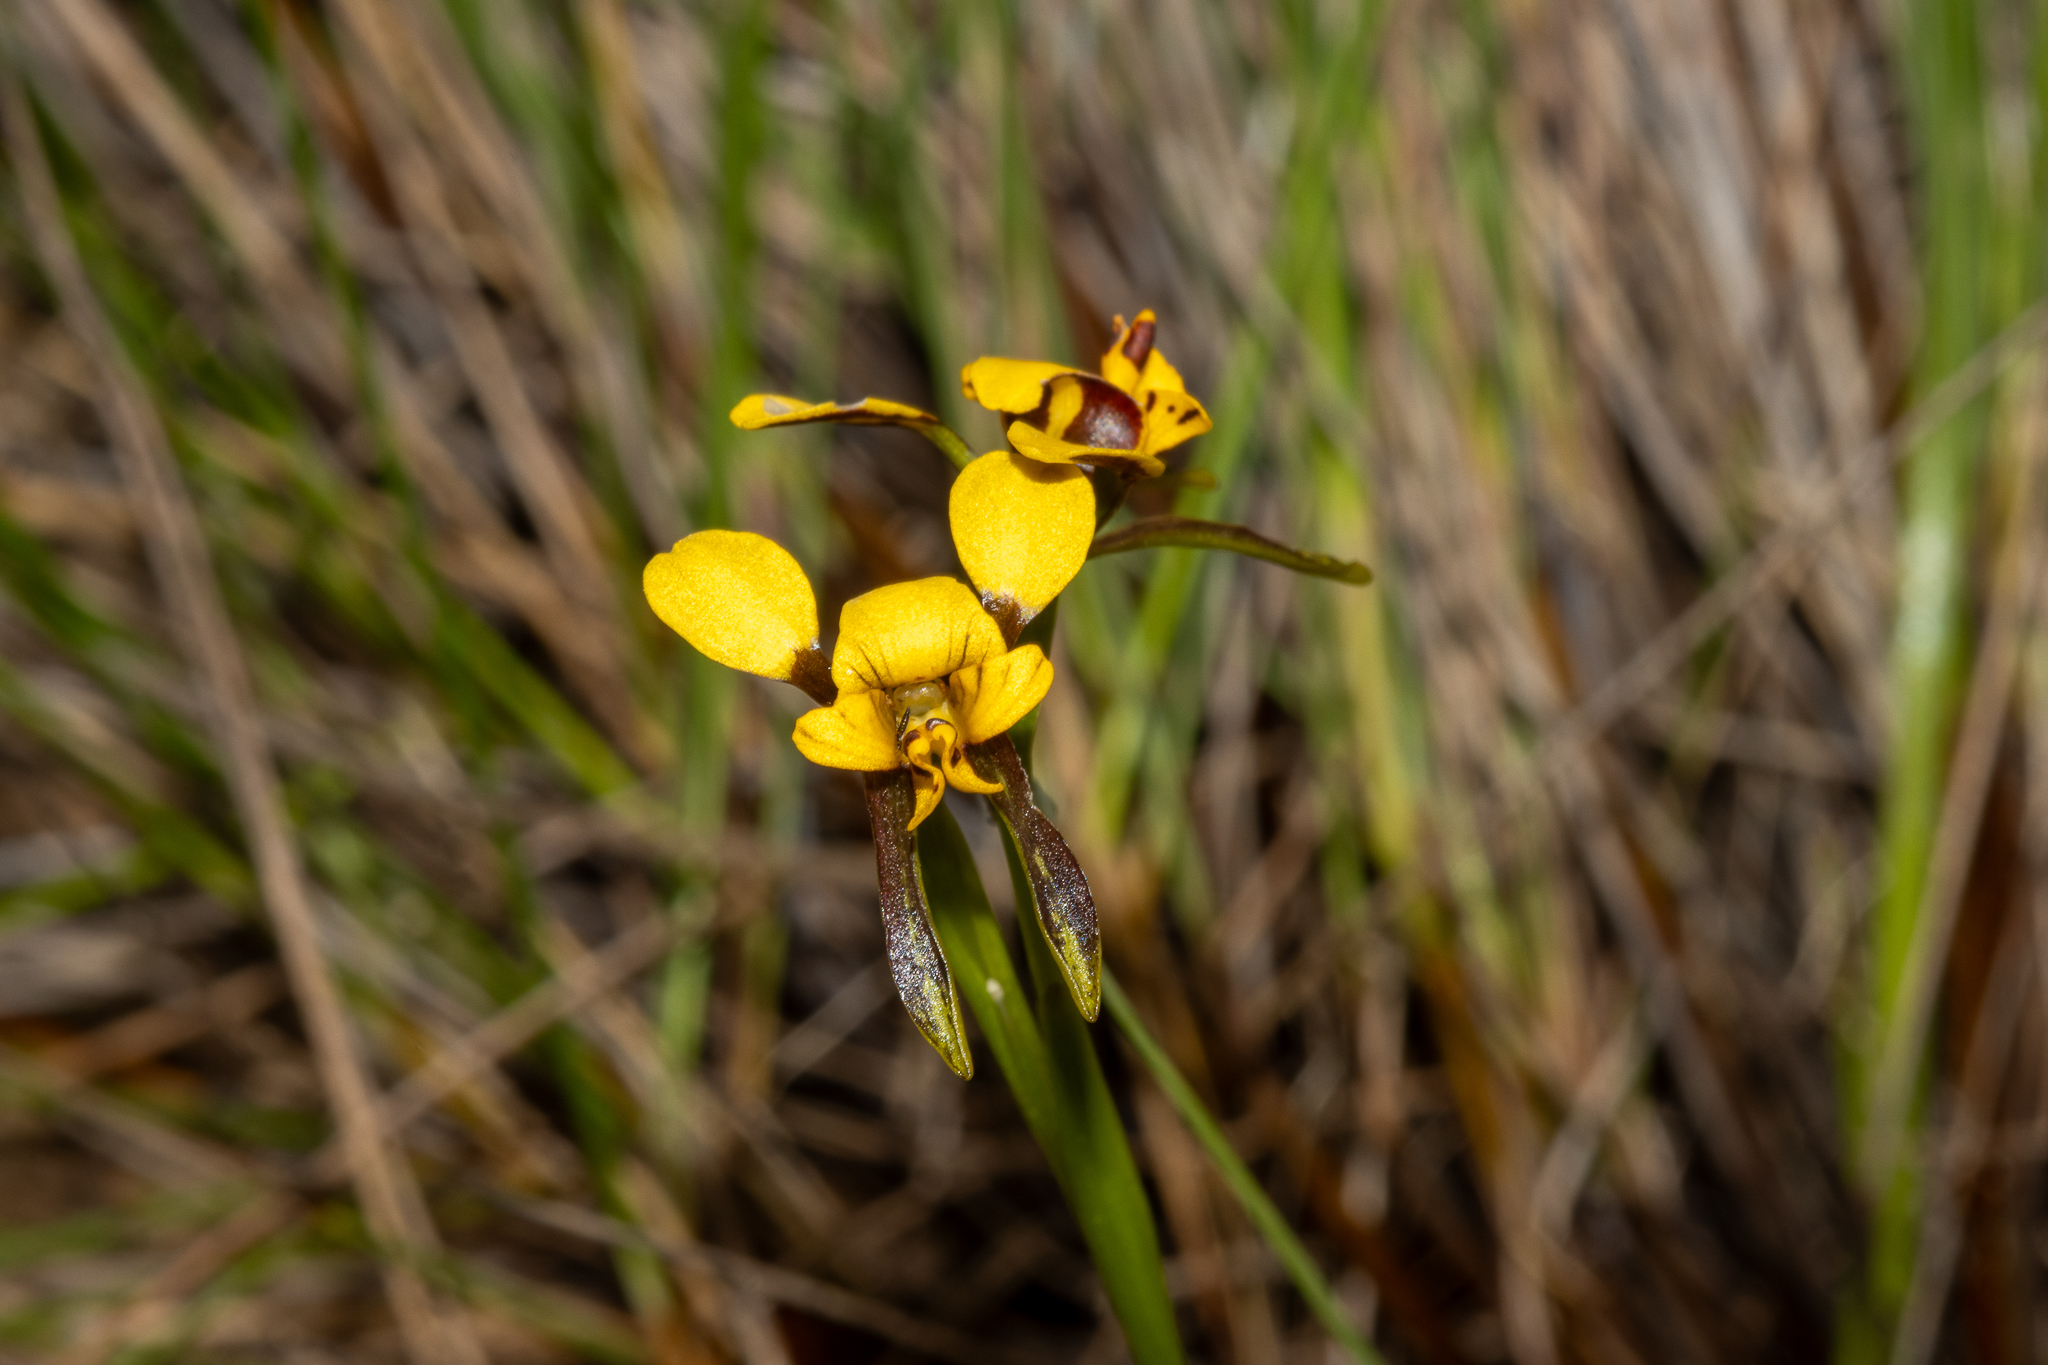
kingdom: Plantae
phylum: Tracheophyta
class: Liliopsida
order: Asparagales
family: Orchidaceae
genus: Diuris
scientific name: Diuris palustris
